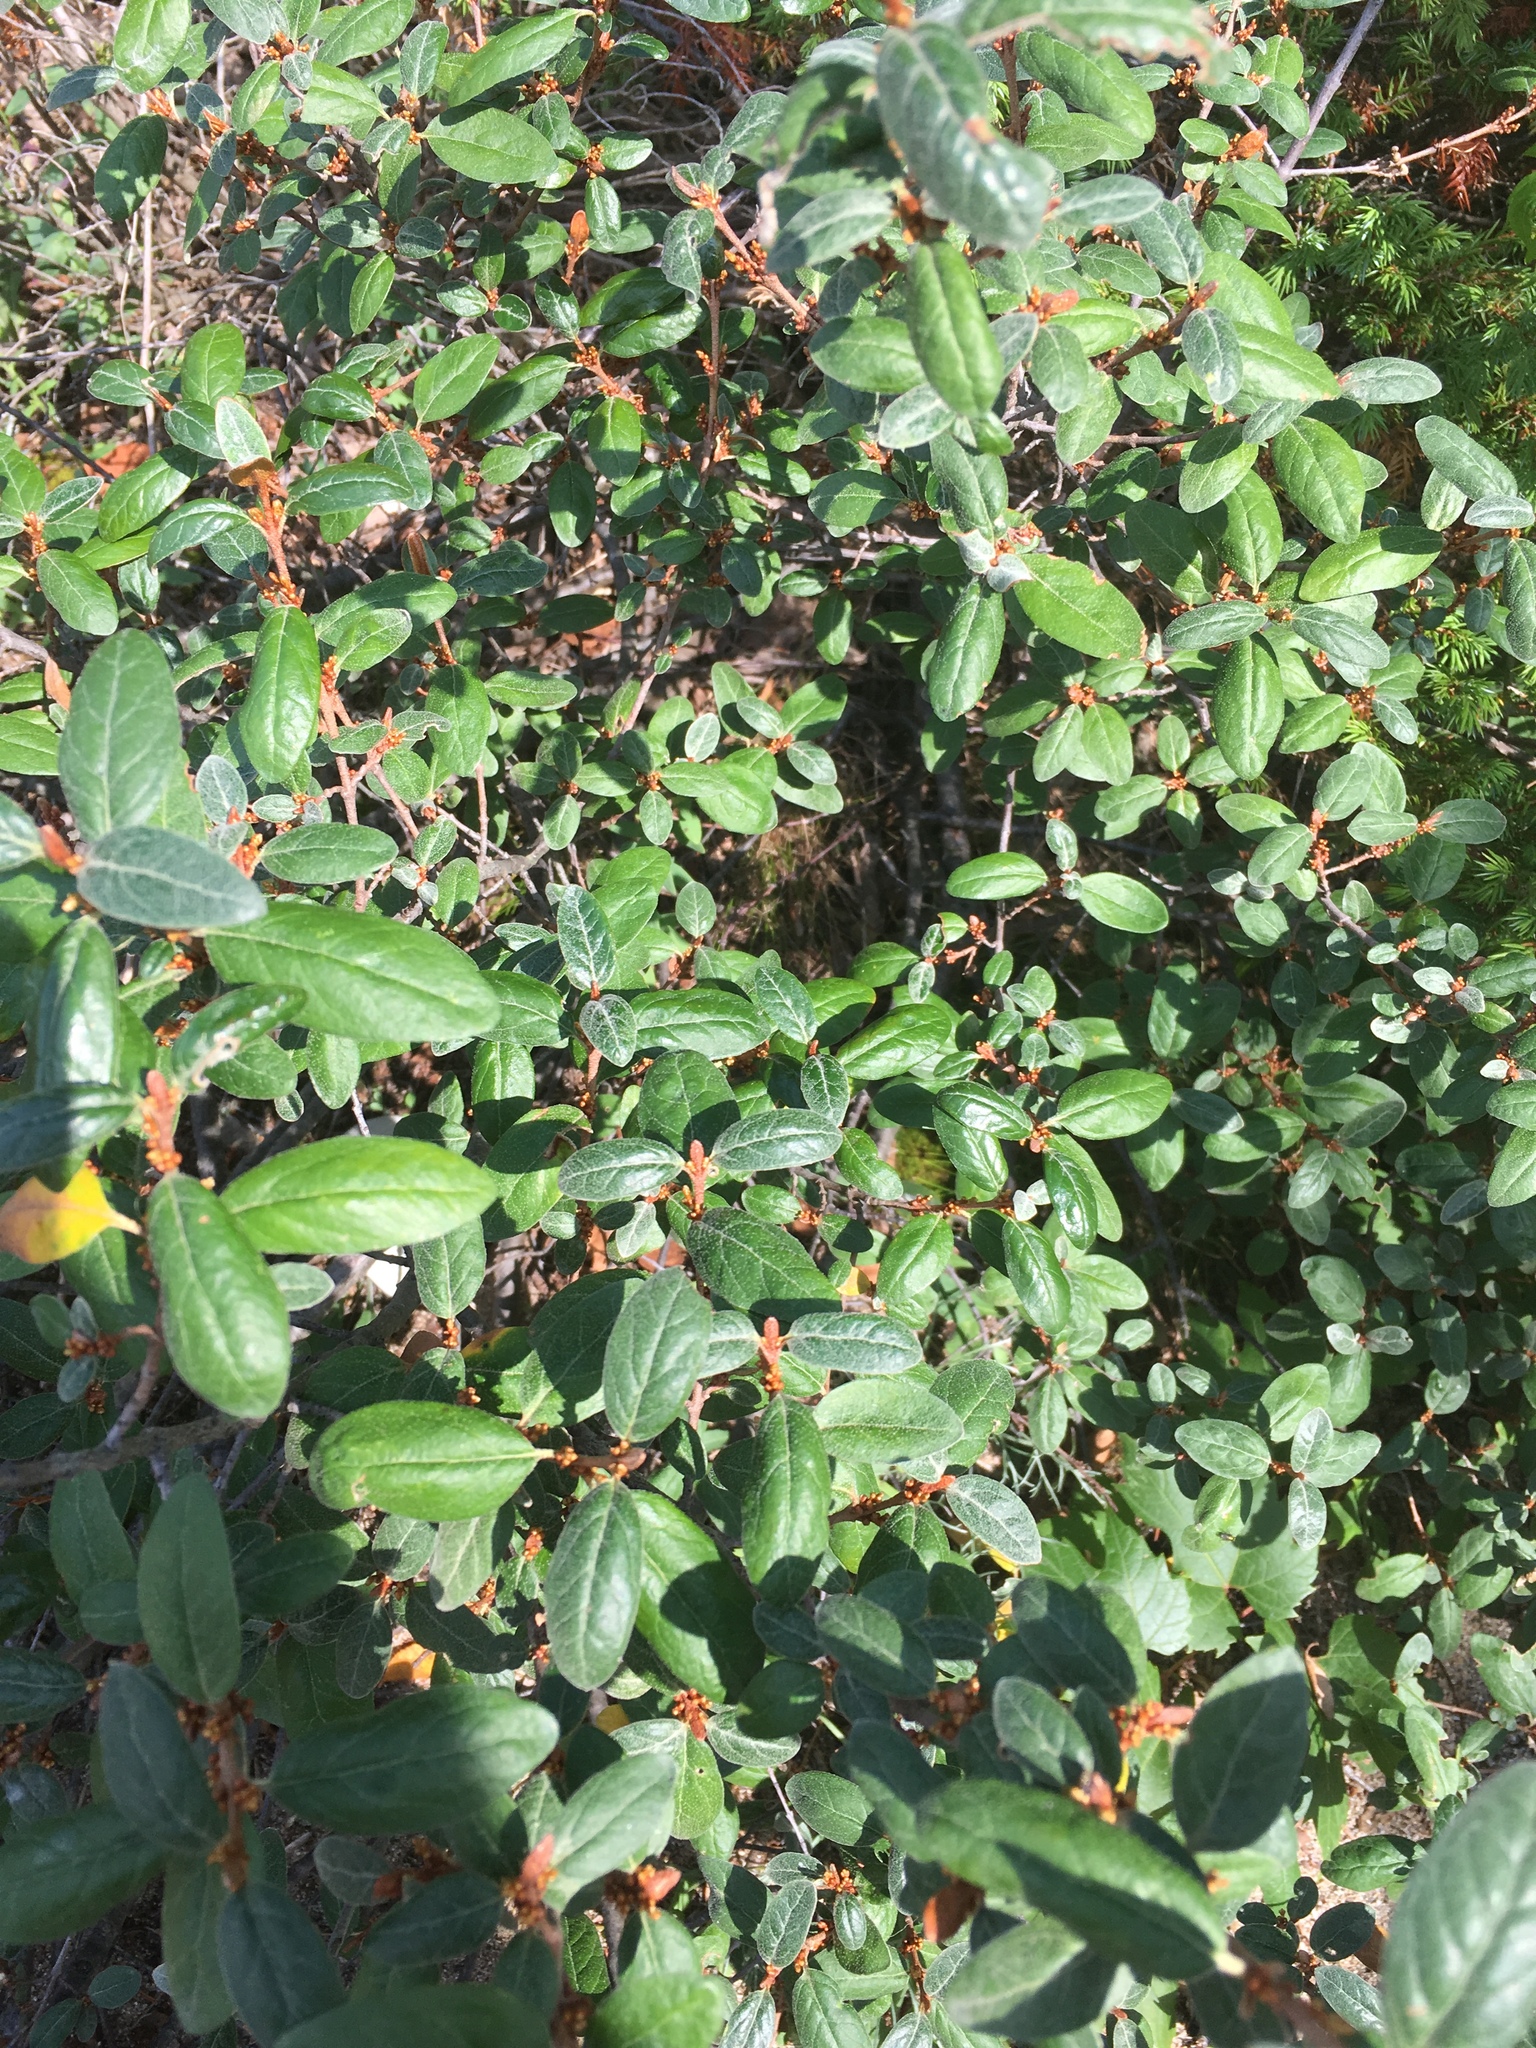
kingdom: Plantae
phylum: Tracheophyta
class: Magnoliopsida
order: Rosales
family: Elaeagnaceae
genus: Shepherdia
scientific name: Shepherdia canadensis
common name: Soapberry
